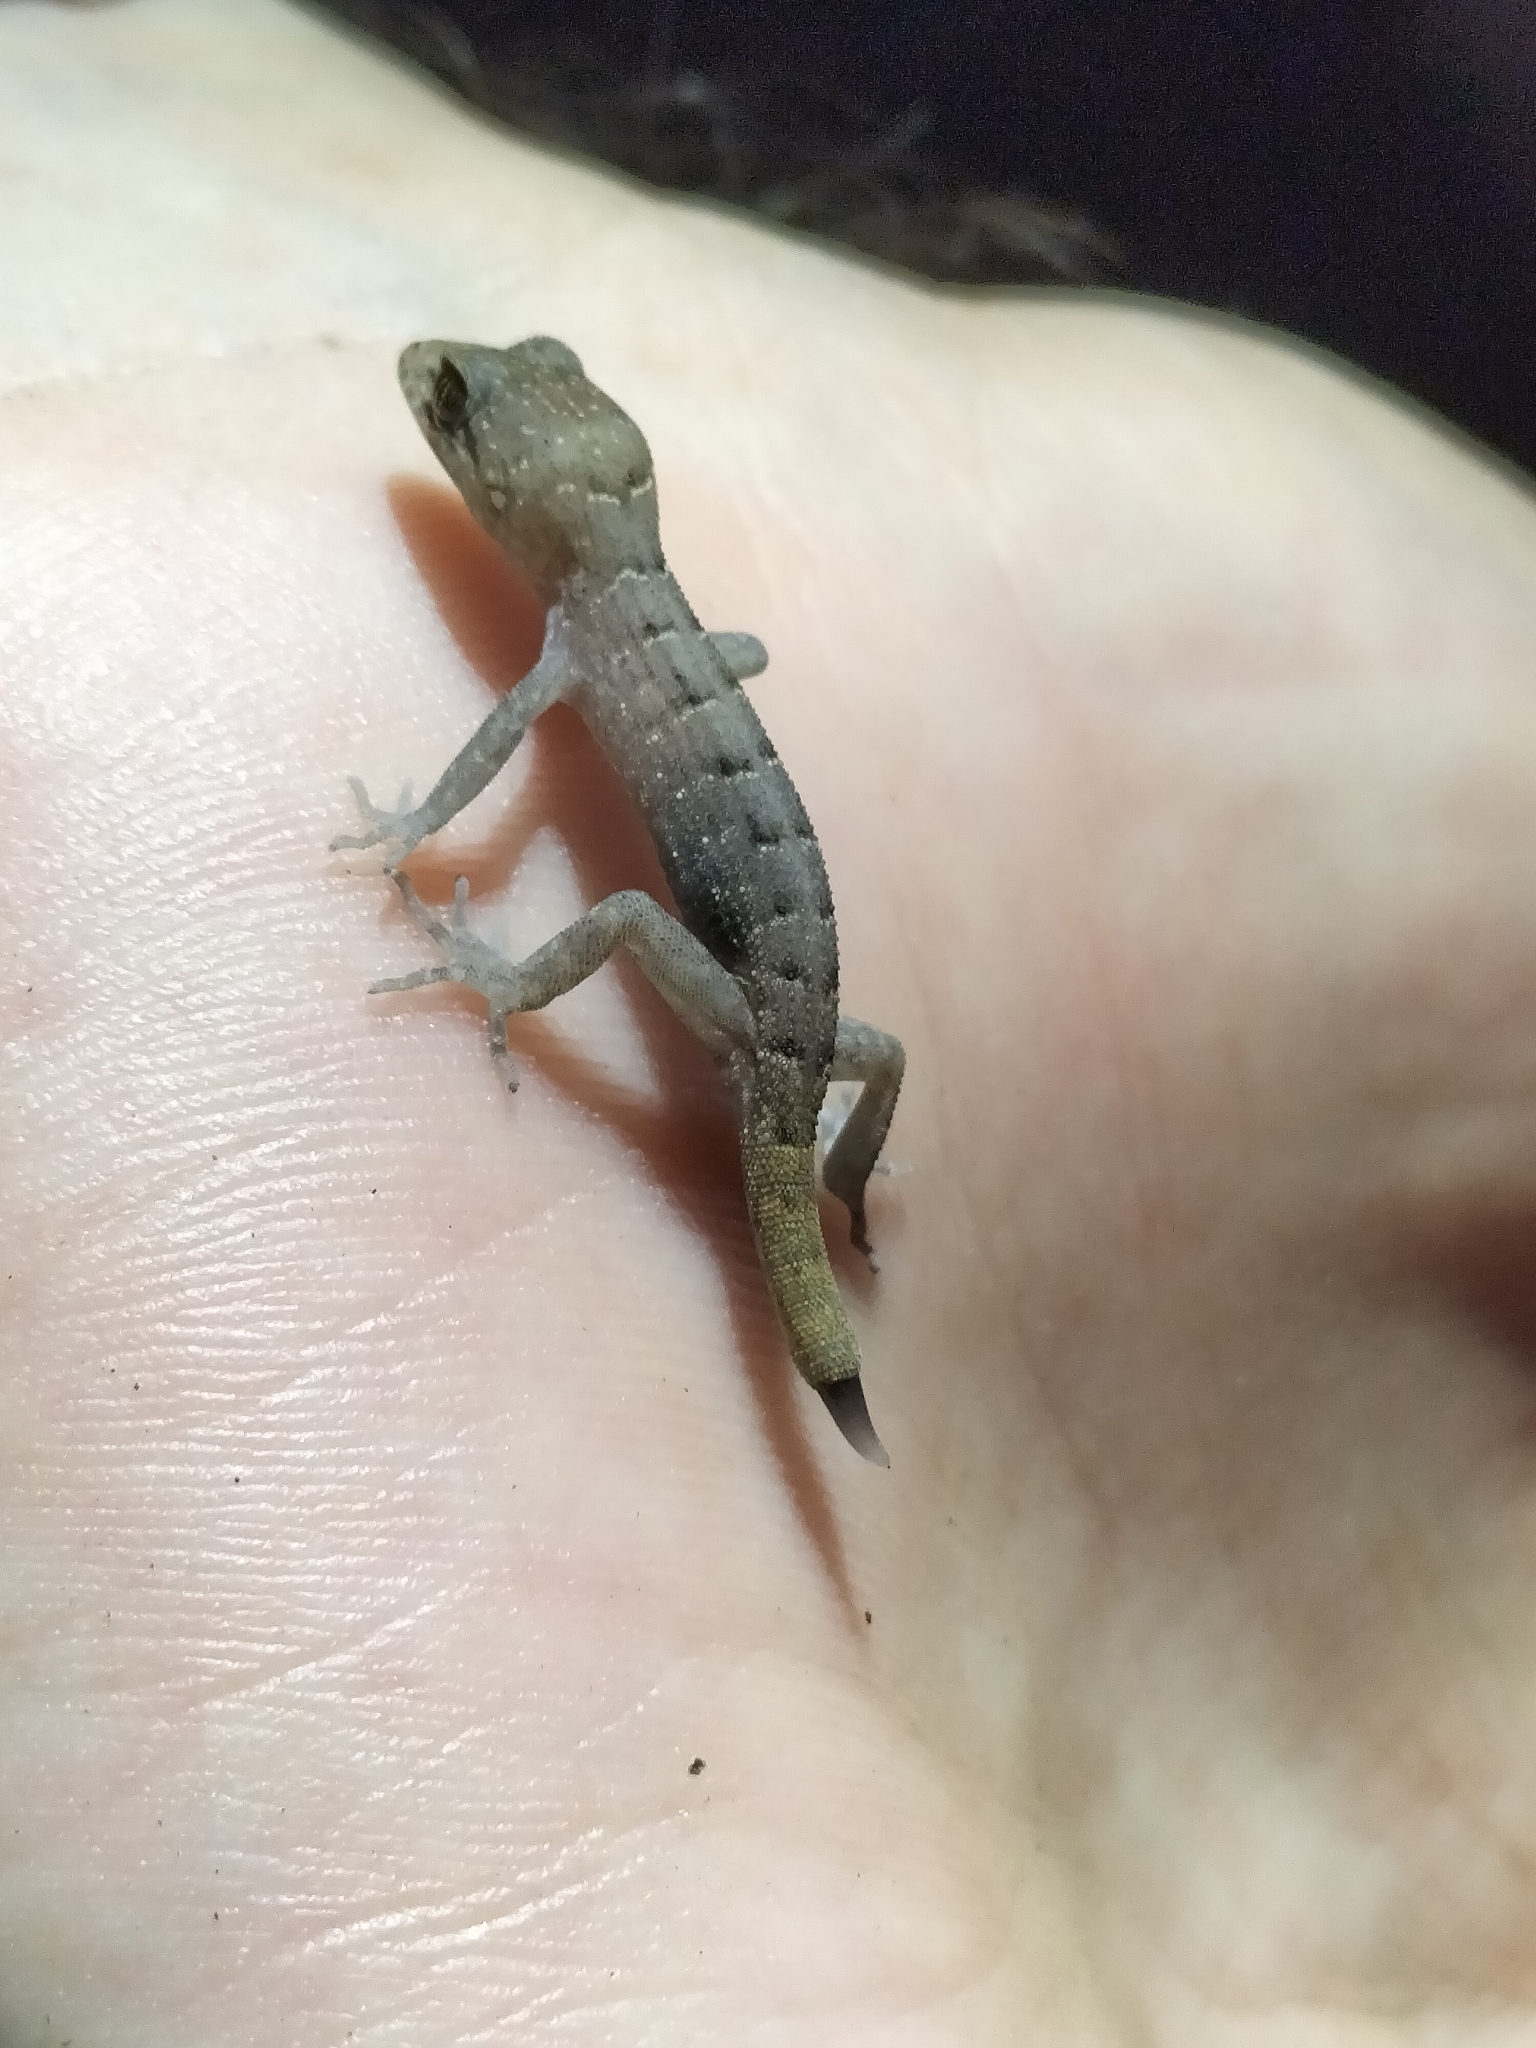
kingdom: Animalia
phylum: Chordata
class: Squamata
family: Gekkonidae
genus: Nactus
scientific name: Nactus cheverti
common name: Chevert's gecko
